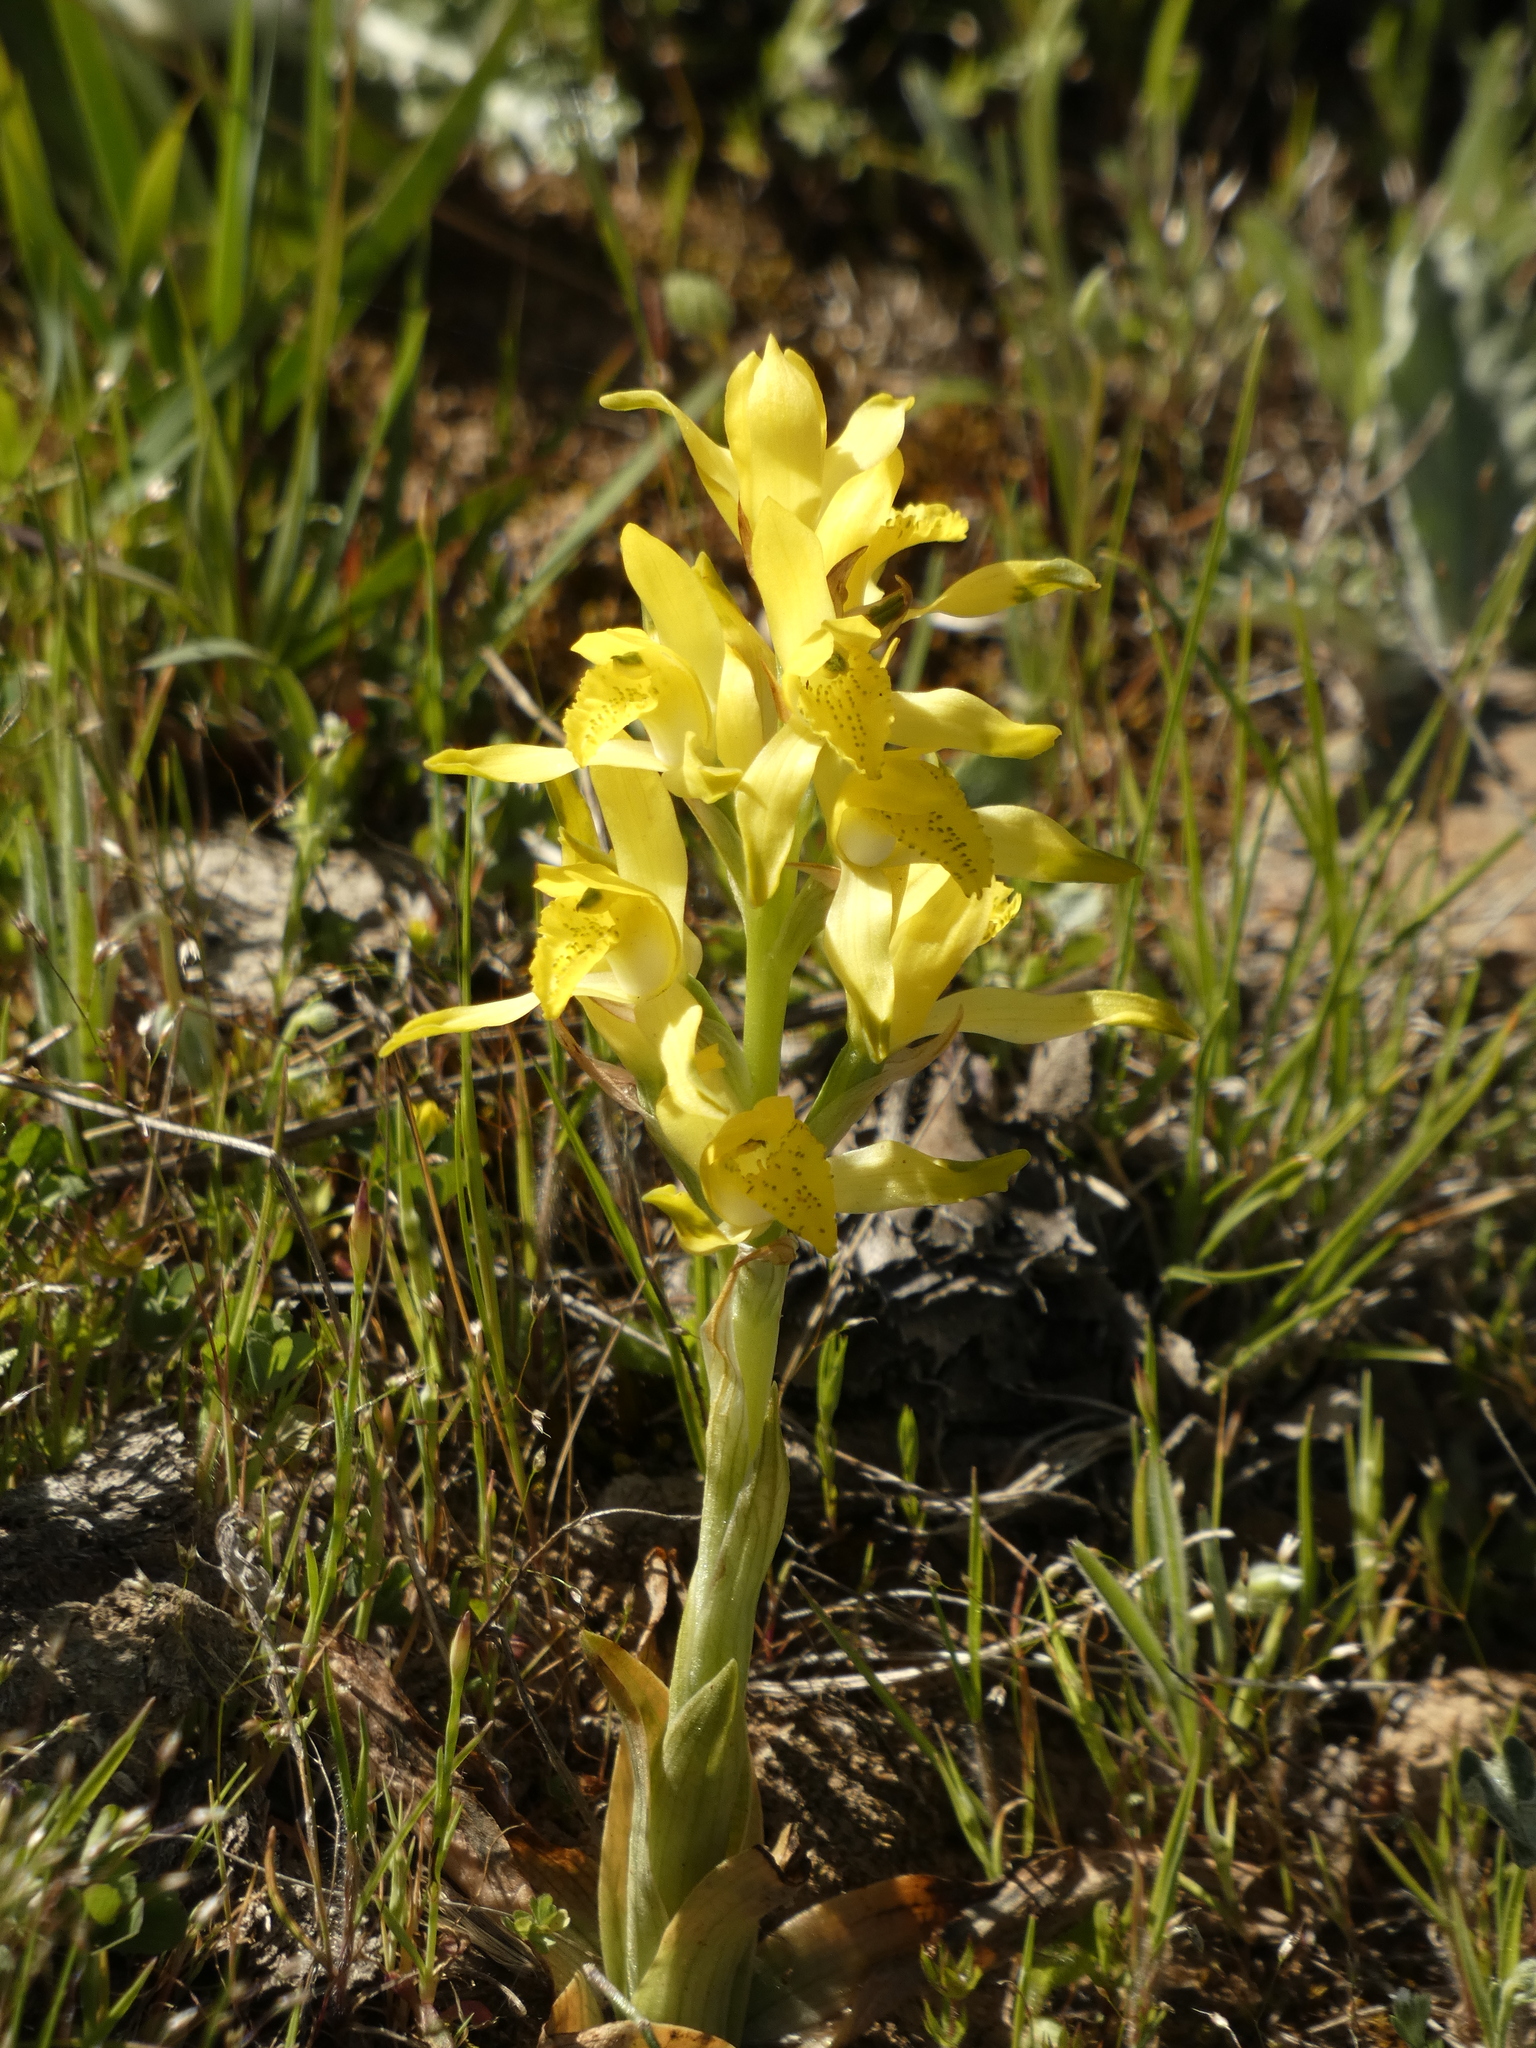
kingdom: Plantae
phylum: Tracheophyta
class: Liliopsida
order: Asparagales
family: Orchidaceae
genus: Chloraea
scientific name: Chloraea gavilu
